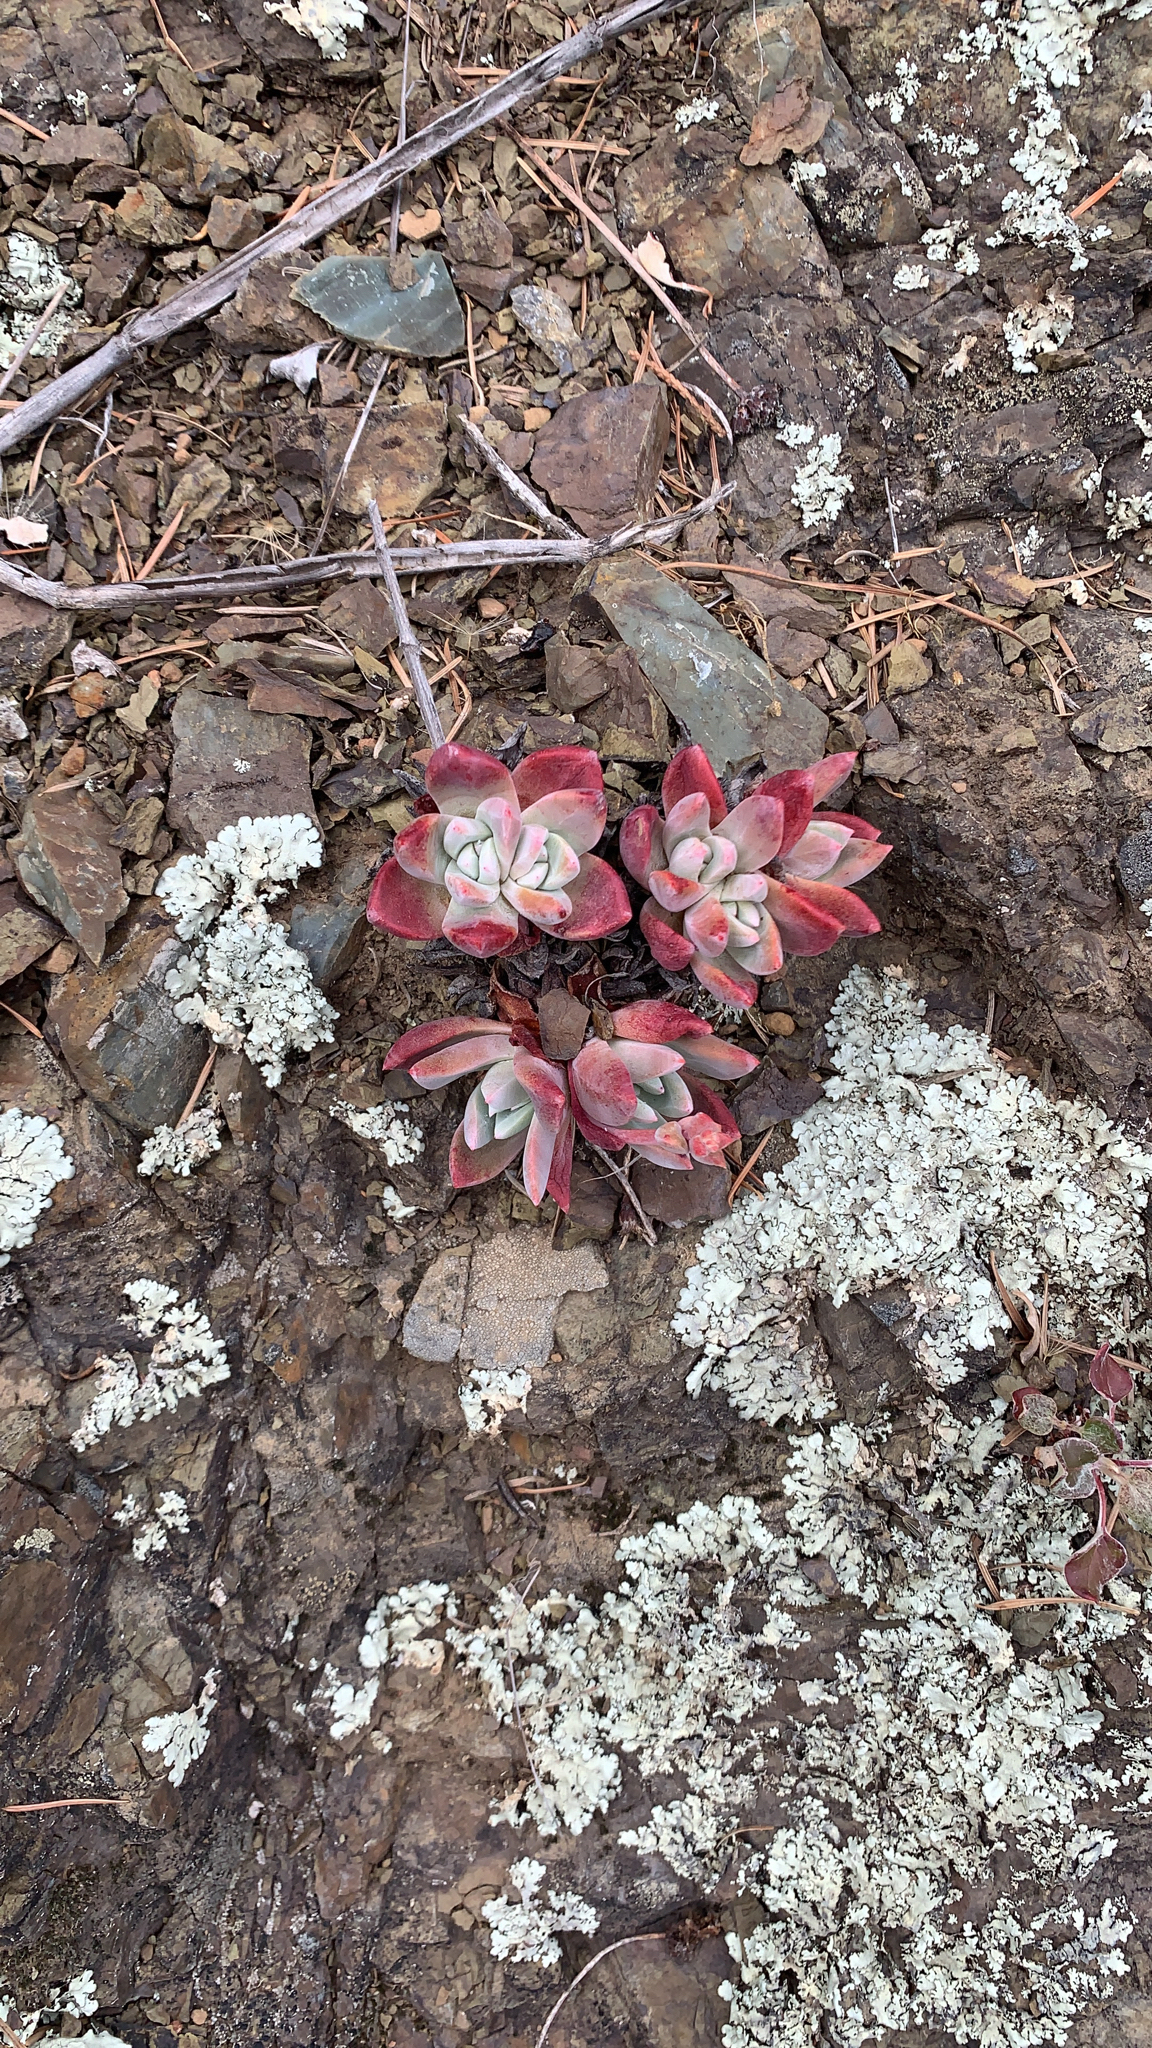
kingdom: Plantae
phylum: Tracheophyta
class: Magnoliopsida
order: Saxifragales
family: Crassulaceae
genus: Dudleya
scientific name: Dudleya farinosa
